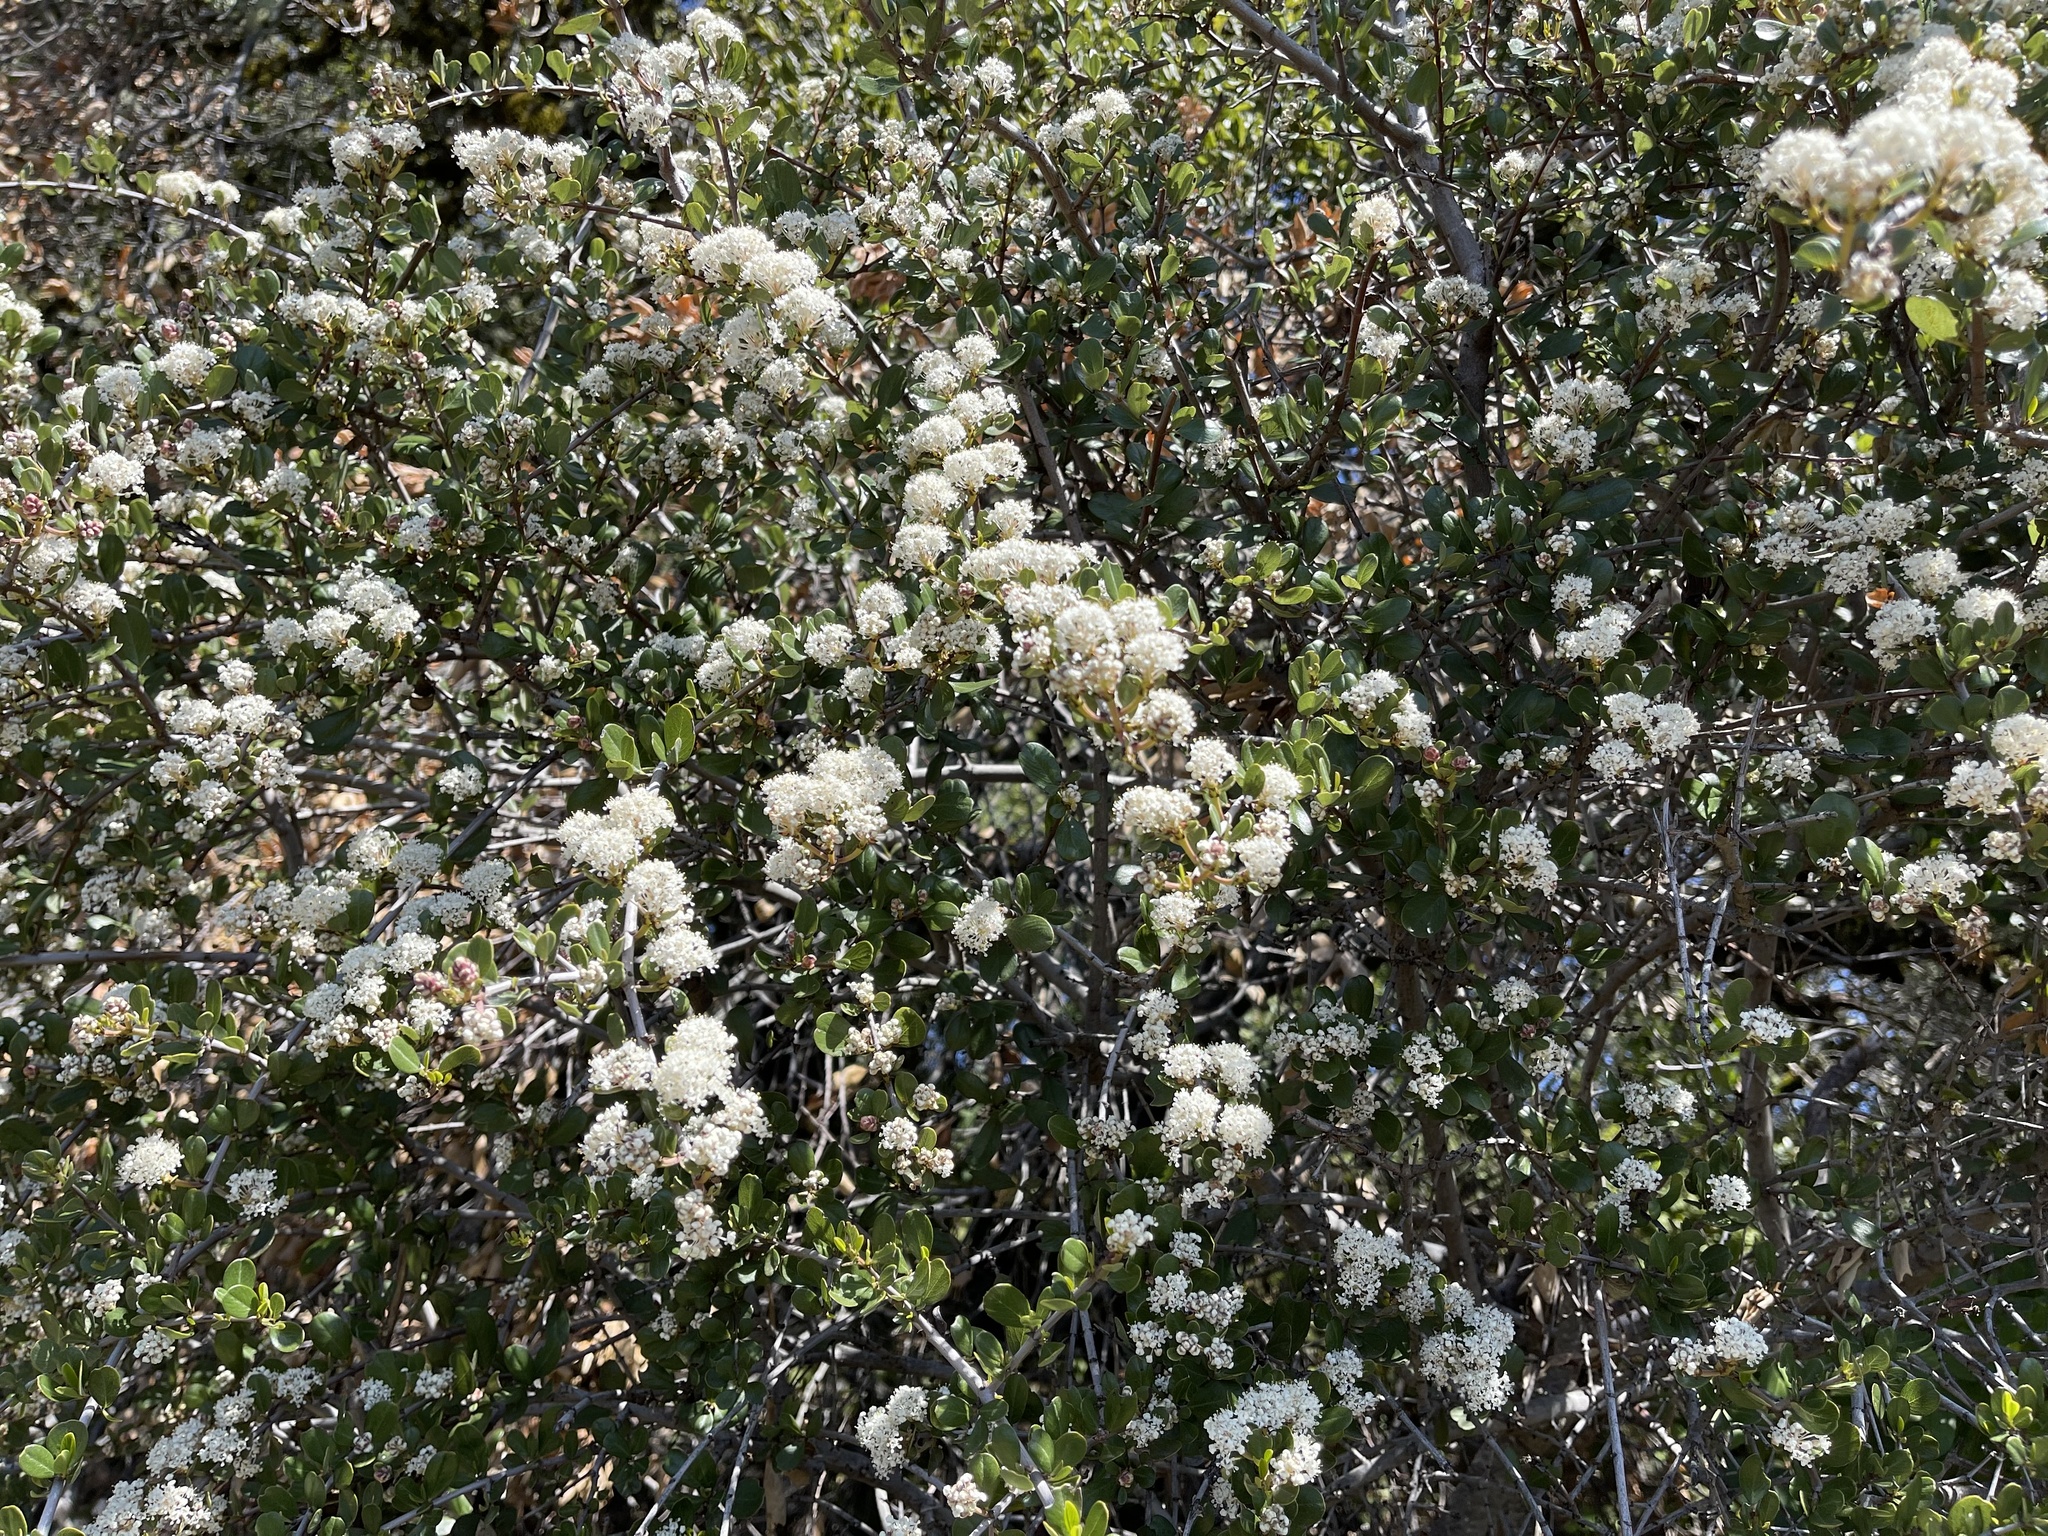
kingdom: Plantae
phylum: Tracheophyta
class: Magnoliopsida
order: Rosales
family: Rhamnaceae
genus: Ceanothus
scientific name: Ceanothus cuneatus
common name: Cuneate ceanothus
